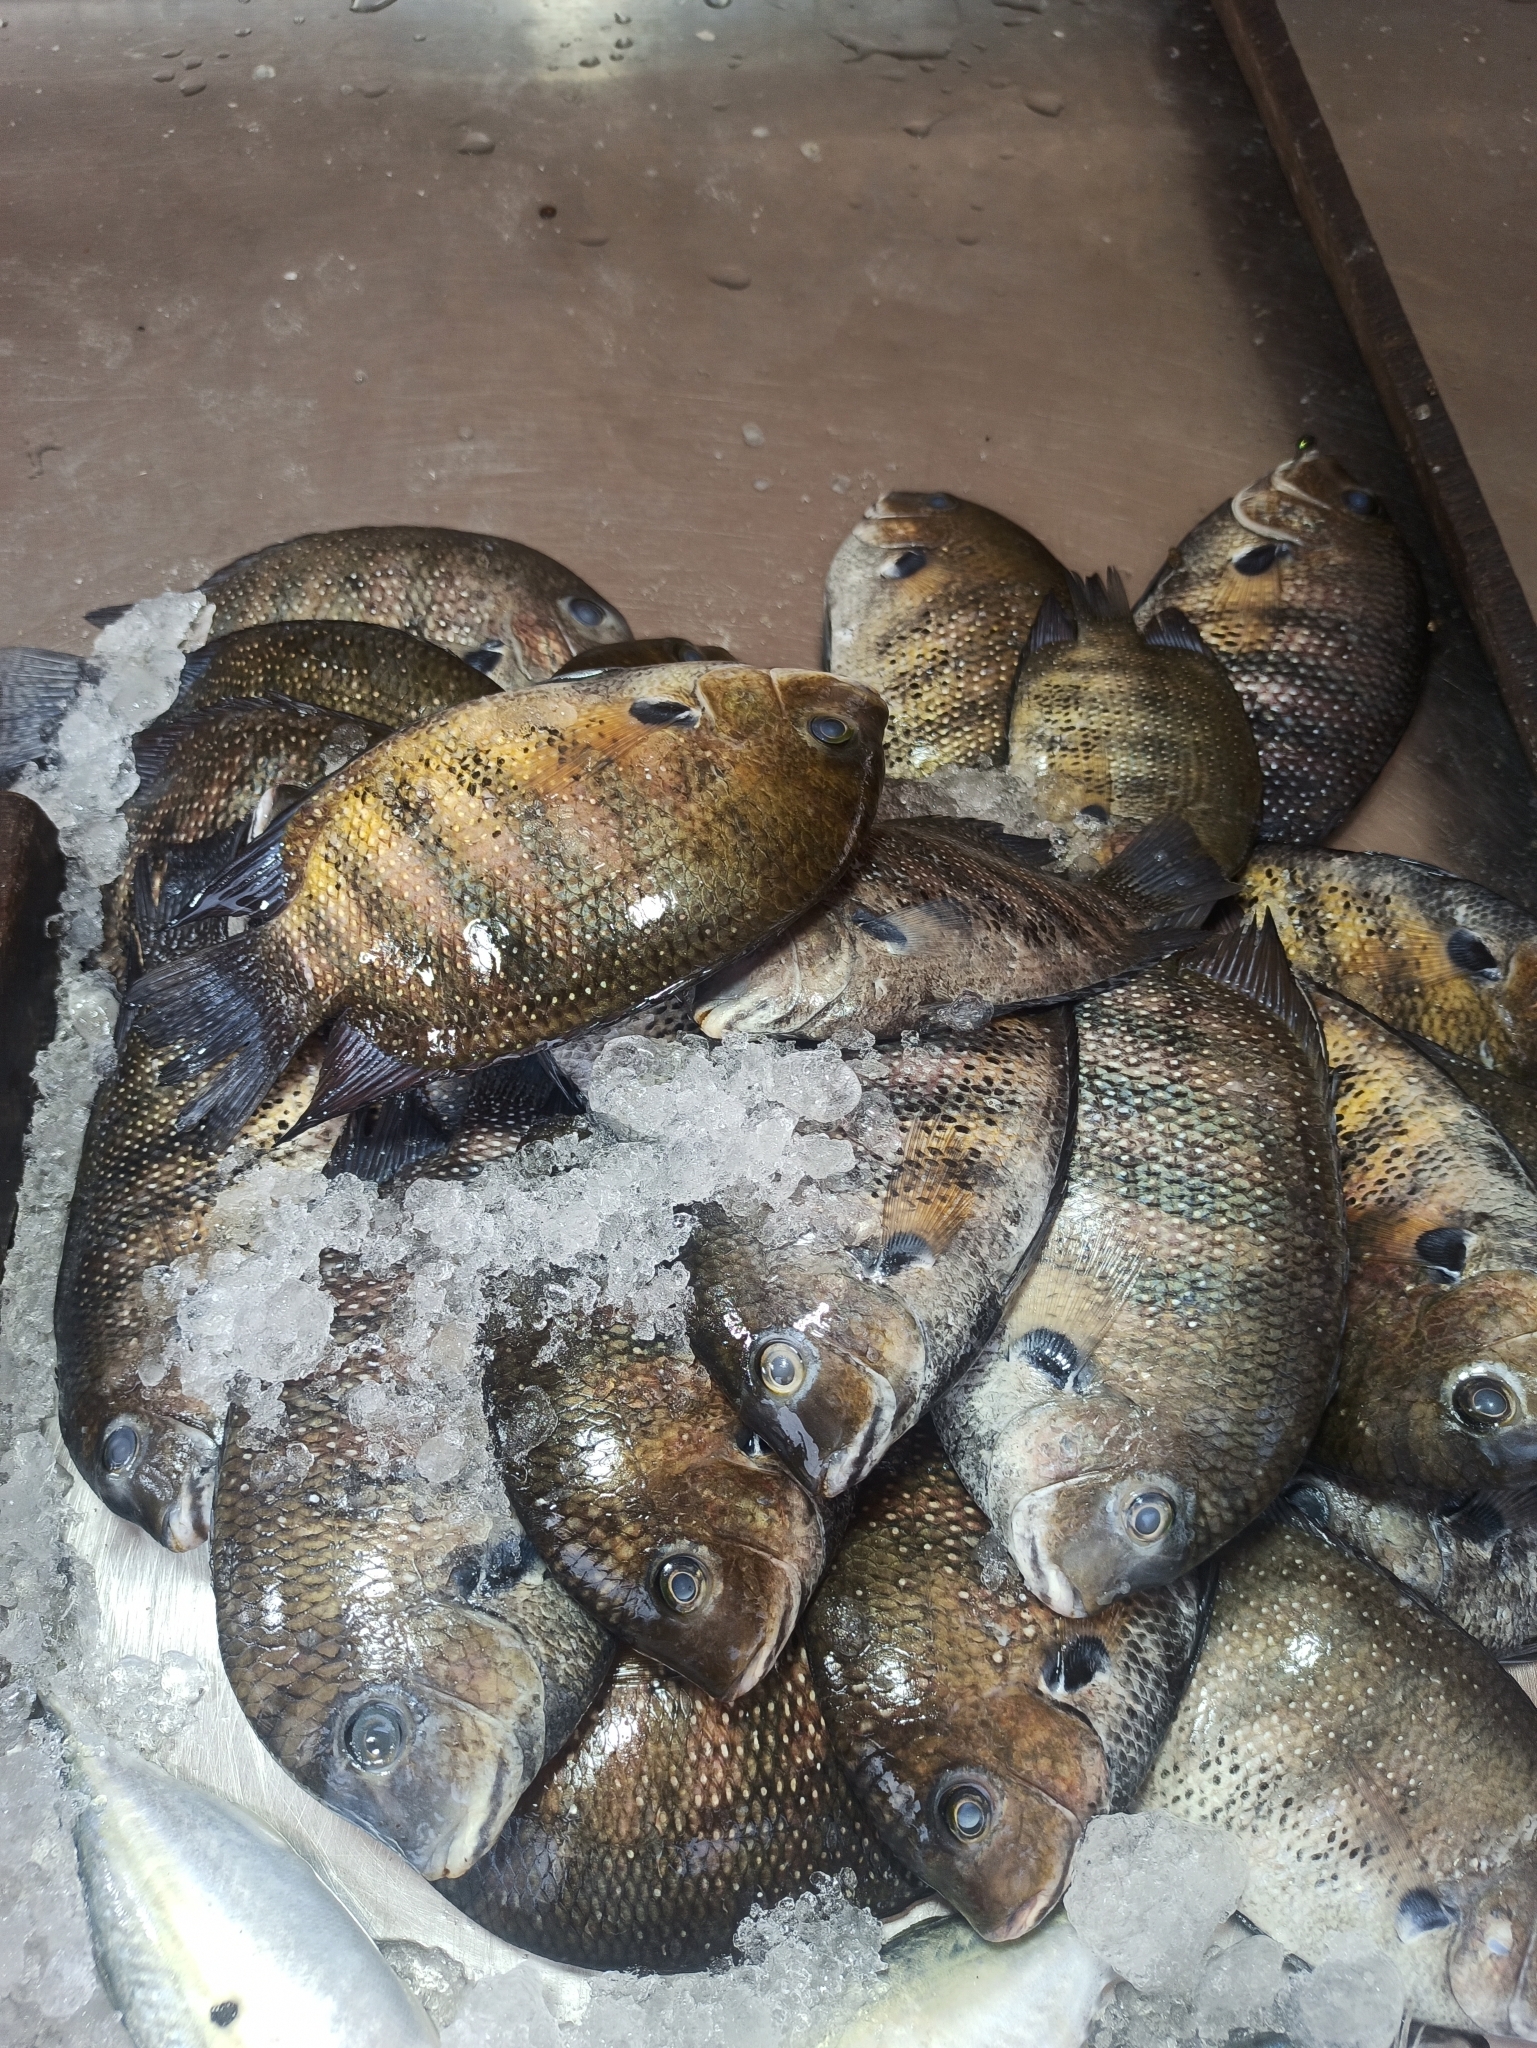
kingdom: Animalia
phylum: Chordata
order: Perciformes
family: Cichlidae
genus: Etroplus
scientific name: Etroplus suratensis
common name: Green chromide
